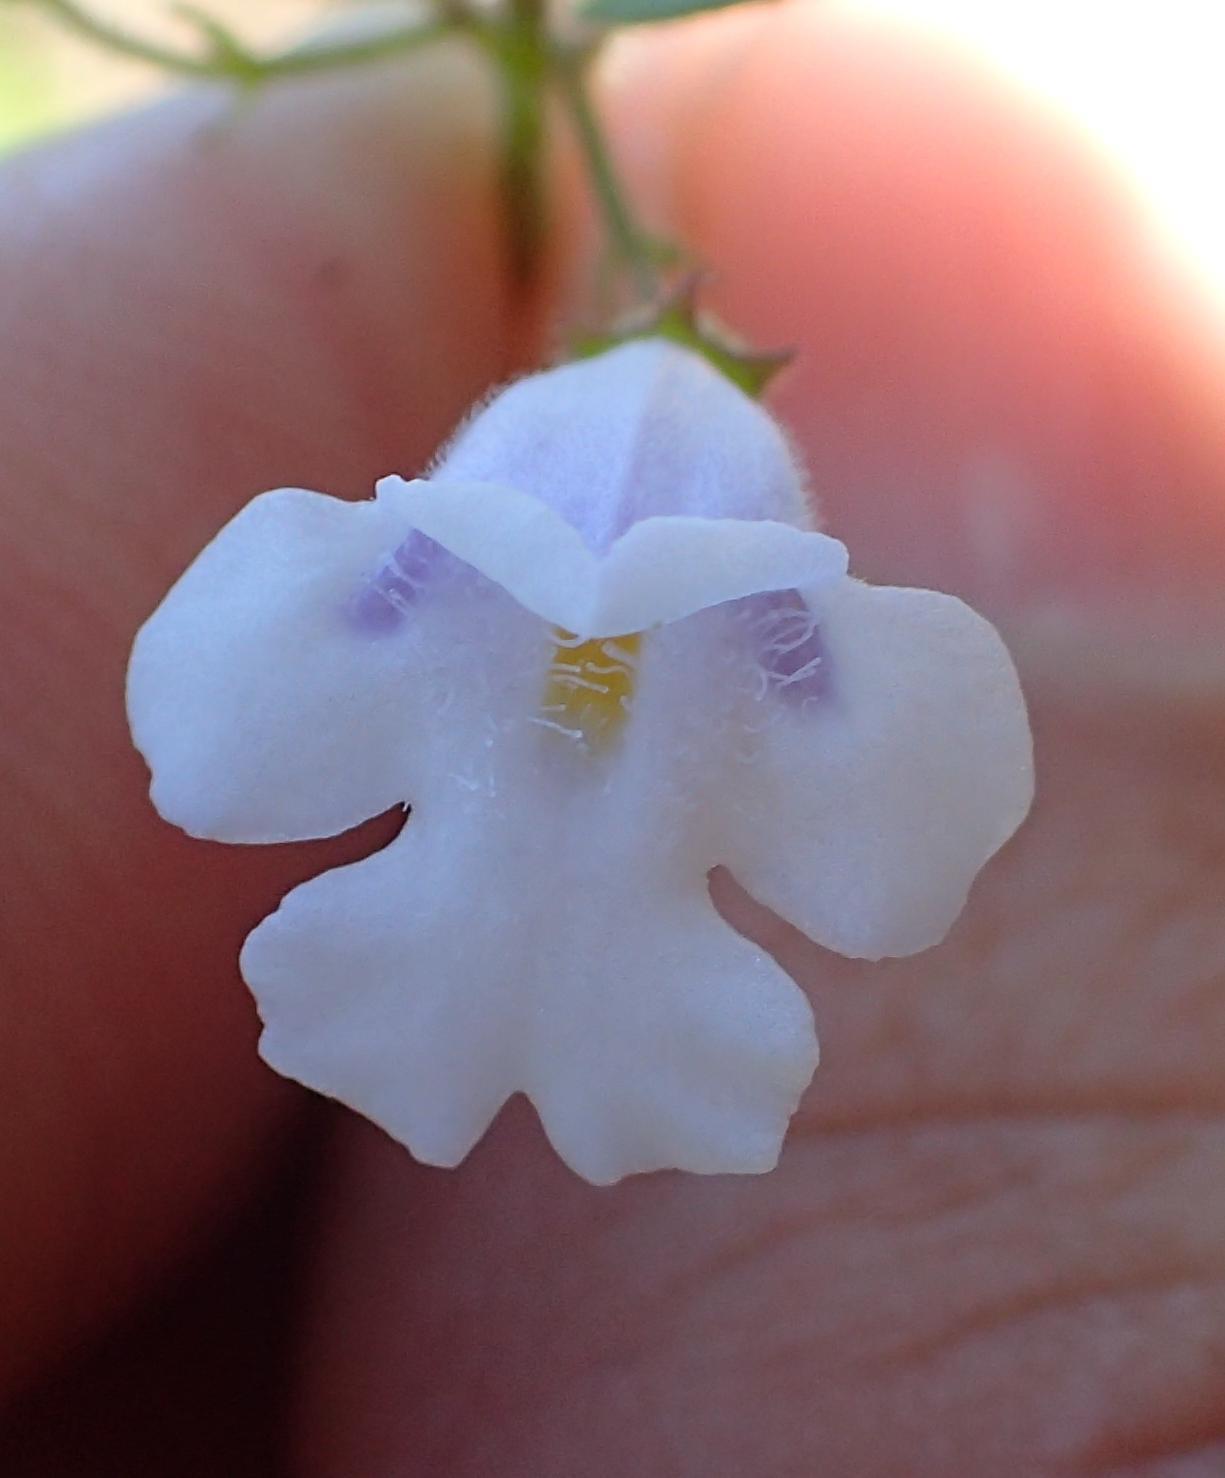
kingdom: Plantae
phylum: Tracheophyta
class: Magnoliopsida
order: Lamiales
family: Lamiaceae
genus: Killickia
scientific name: Killickia pilosa
